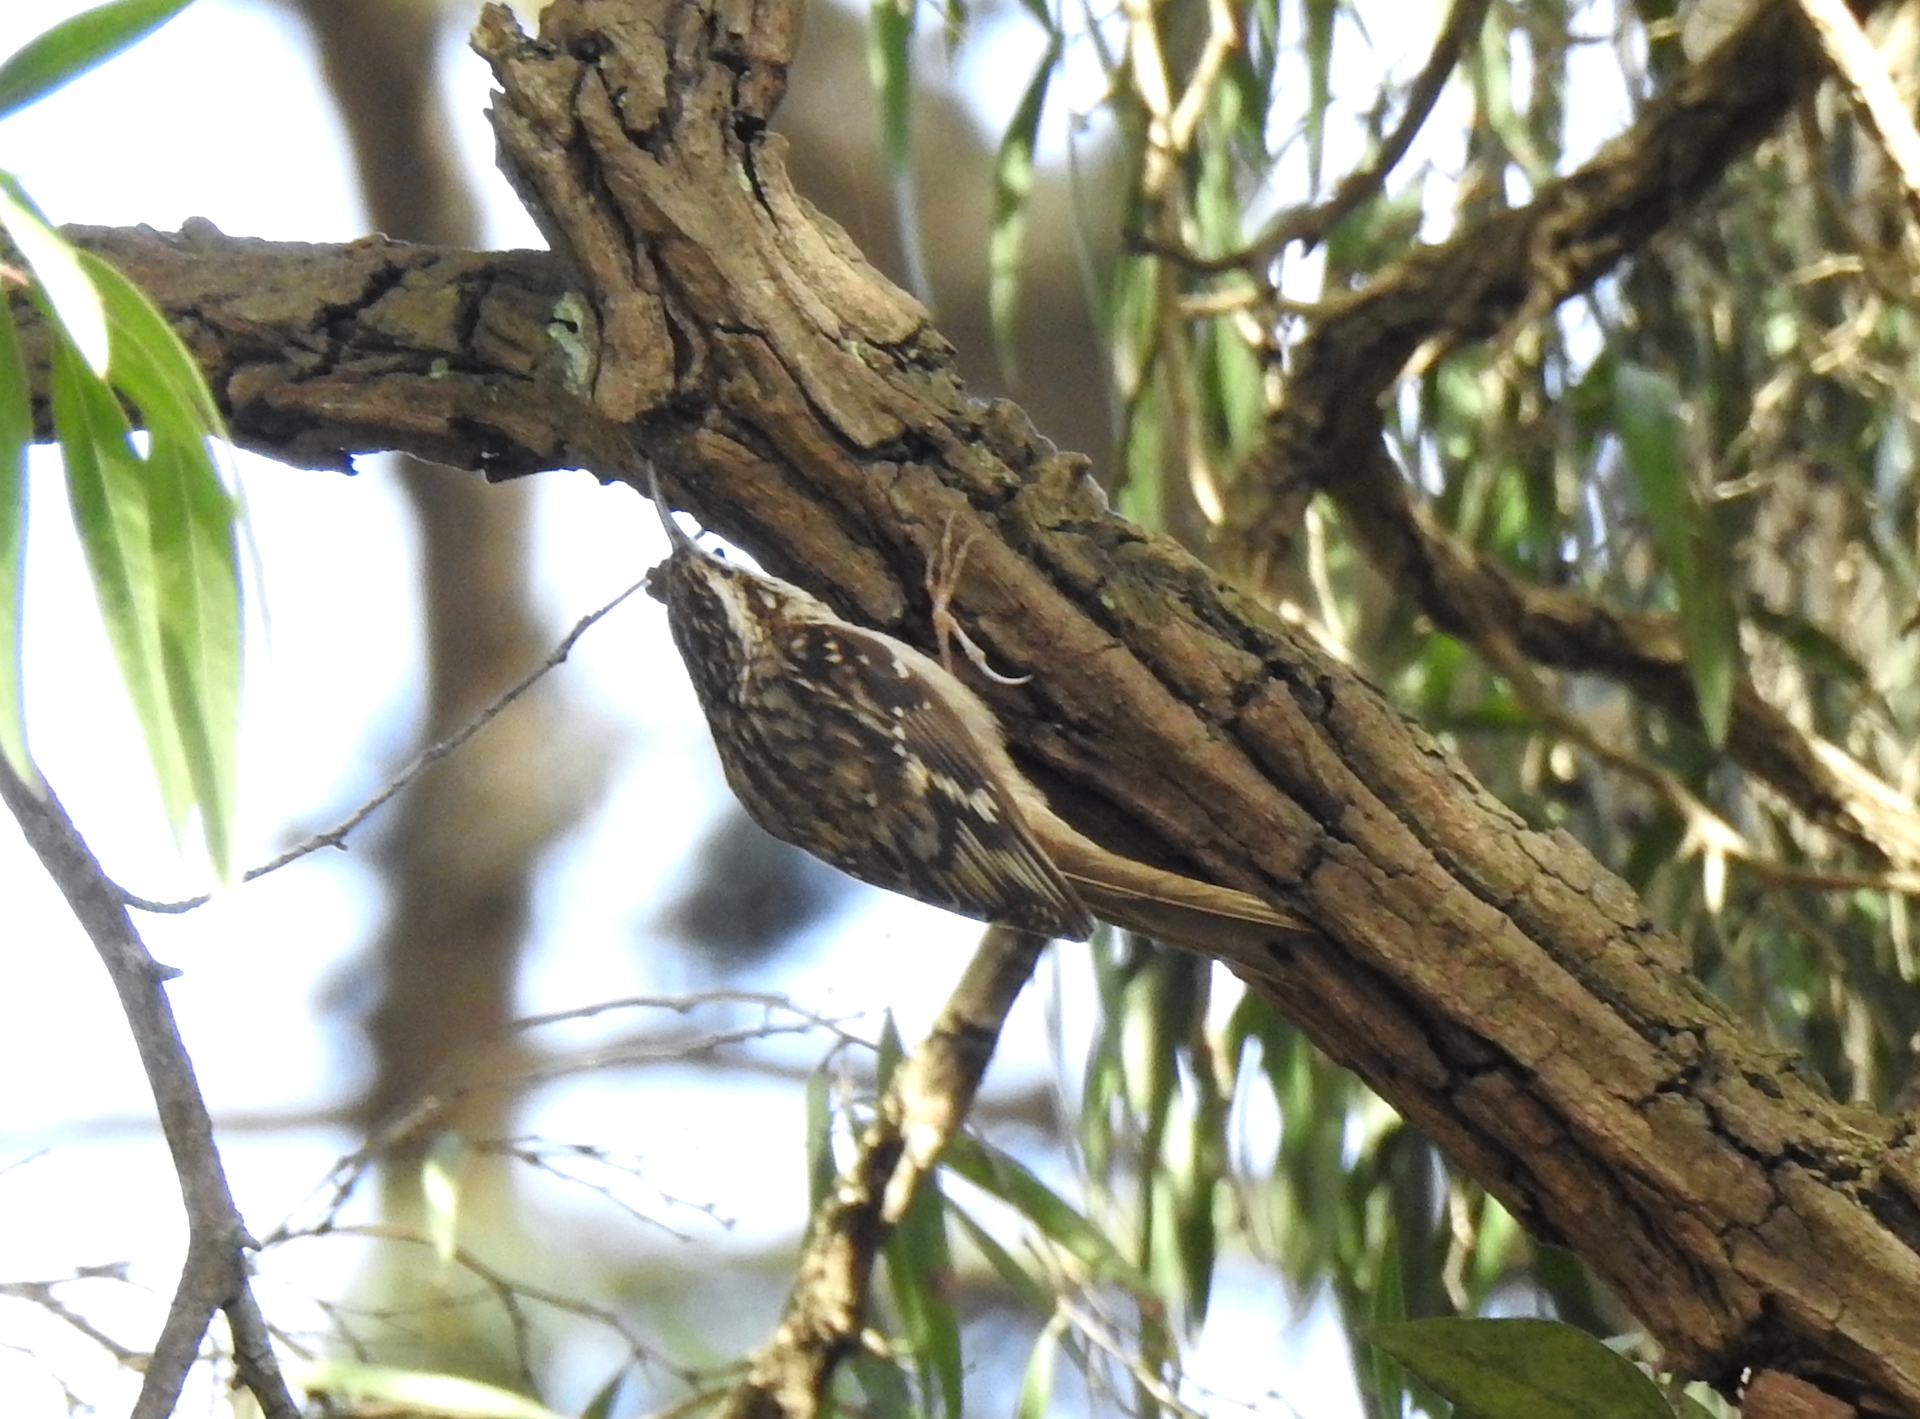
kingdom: Animalia
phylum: Chordata
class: Aves
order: Passeriformes
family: Certhiidae
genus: Certhia
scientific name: Certhia americana
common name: Brown creeper
